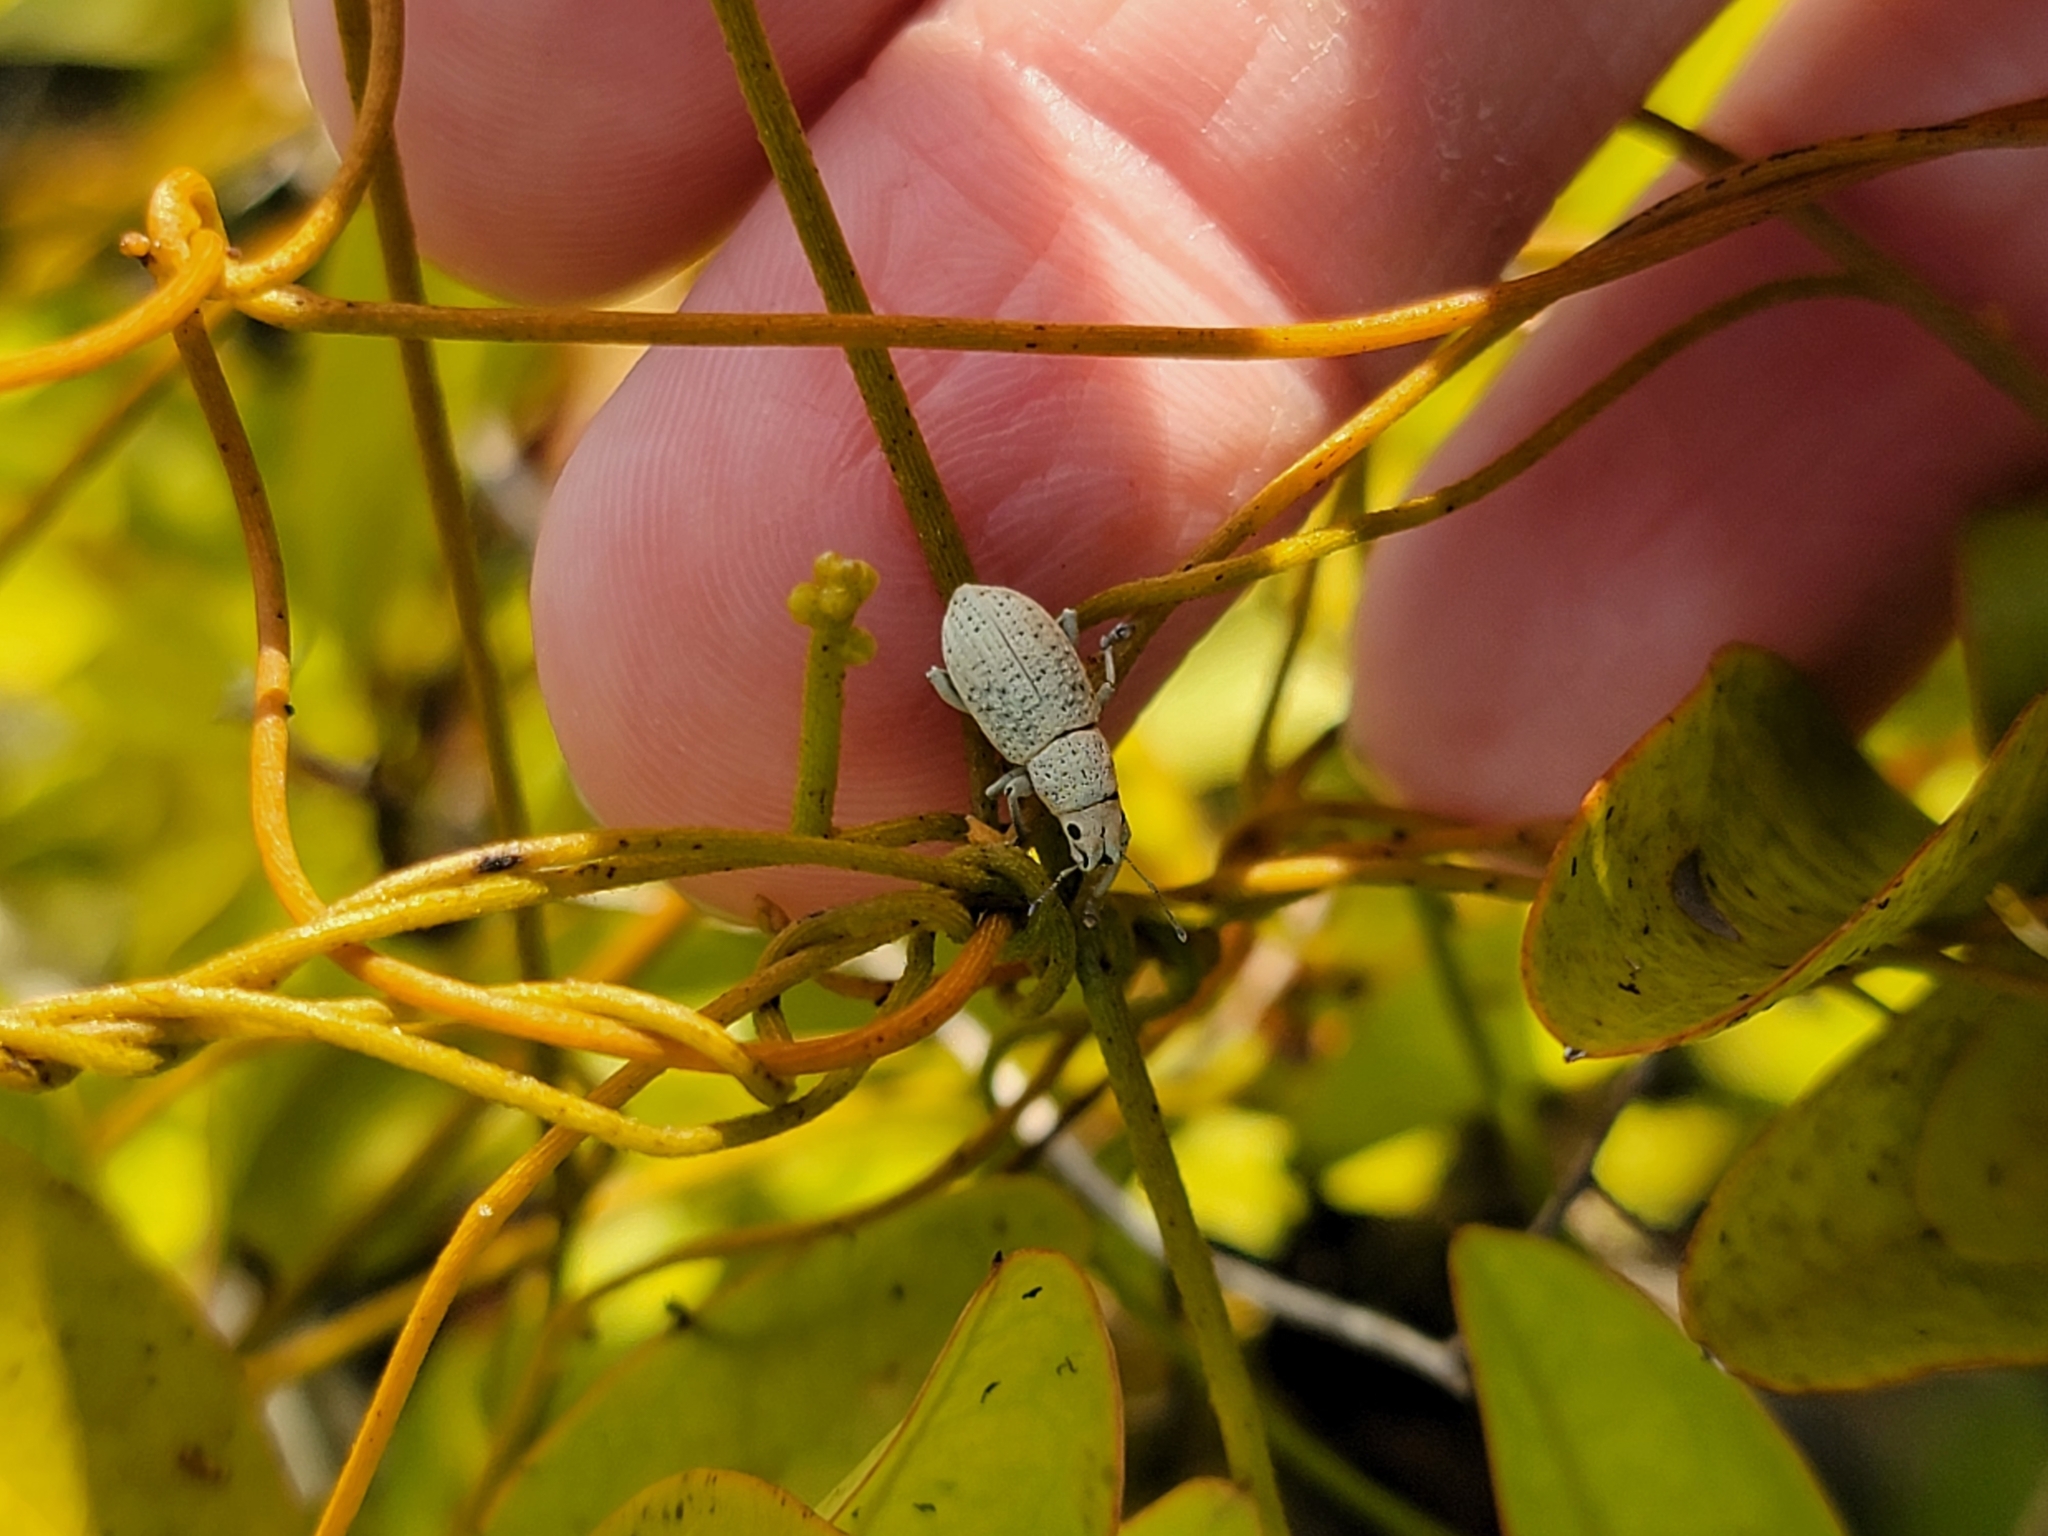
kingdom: Animalia
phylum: Arthropoda
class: Insecta
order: Coleoptera
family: Curculionidae
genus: Artipus
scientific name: Artipus floridanus
